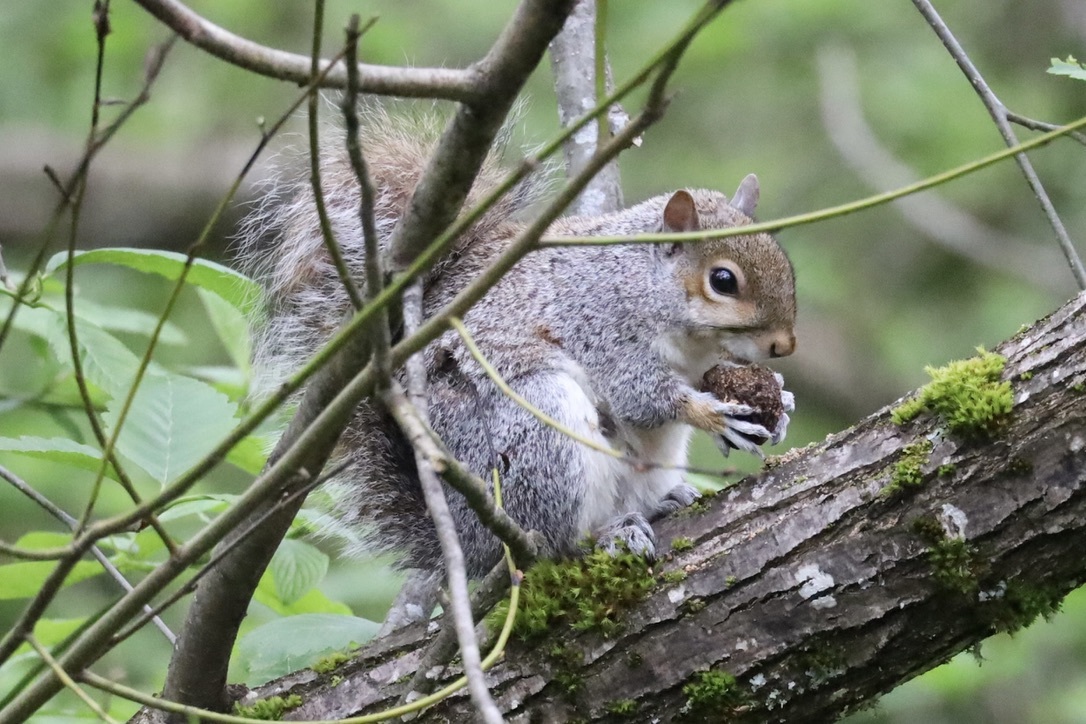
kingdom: Animalia
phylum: Chordata
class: Mammalia
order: Rodentia
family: Sciuridae
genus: Sciurus
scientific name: Sciurus carolinensis
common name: Eastern gray squirrel
